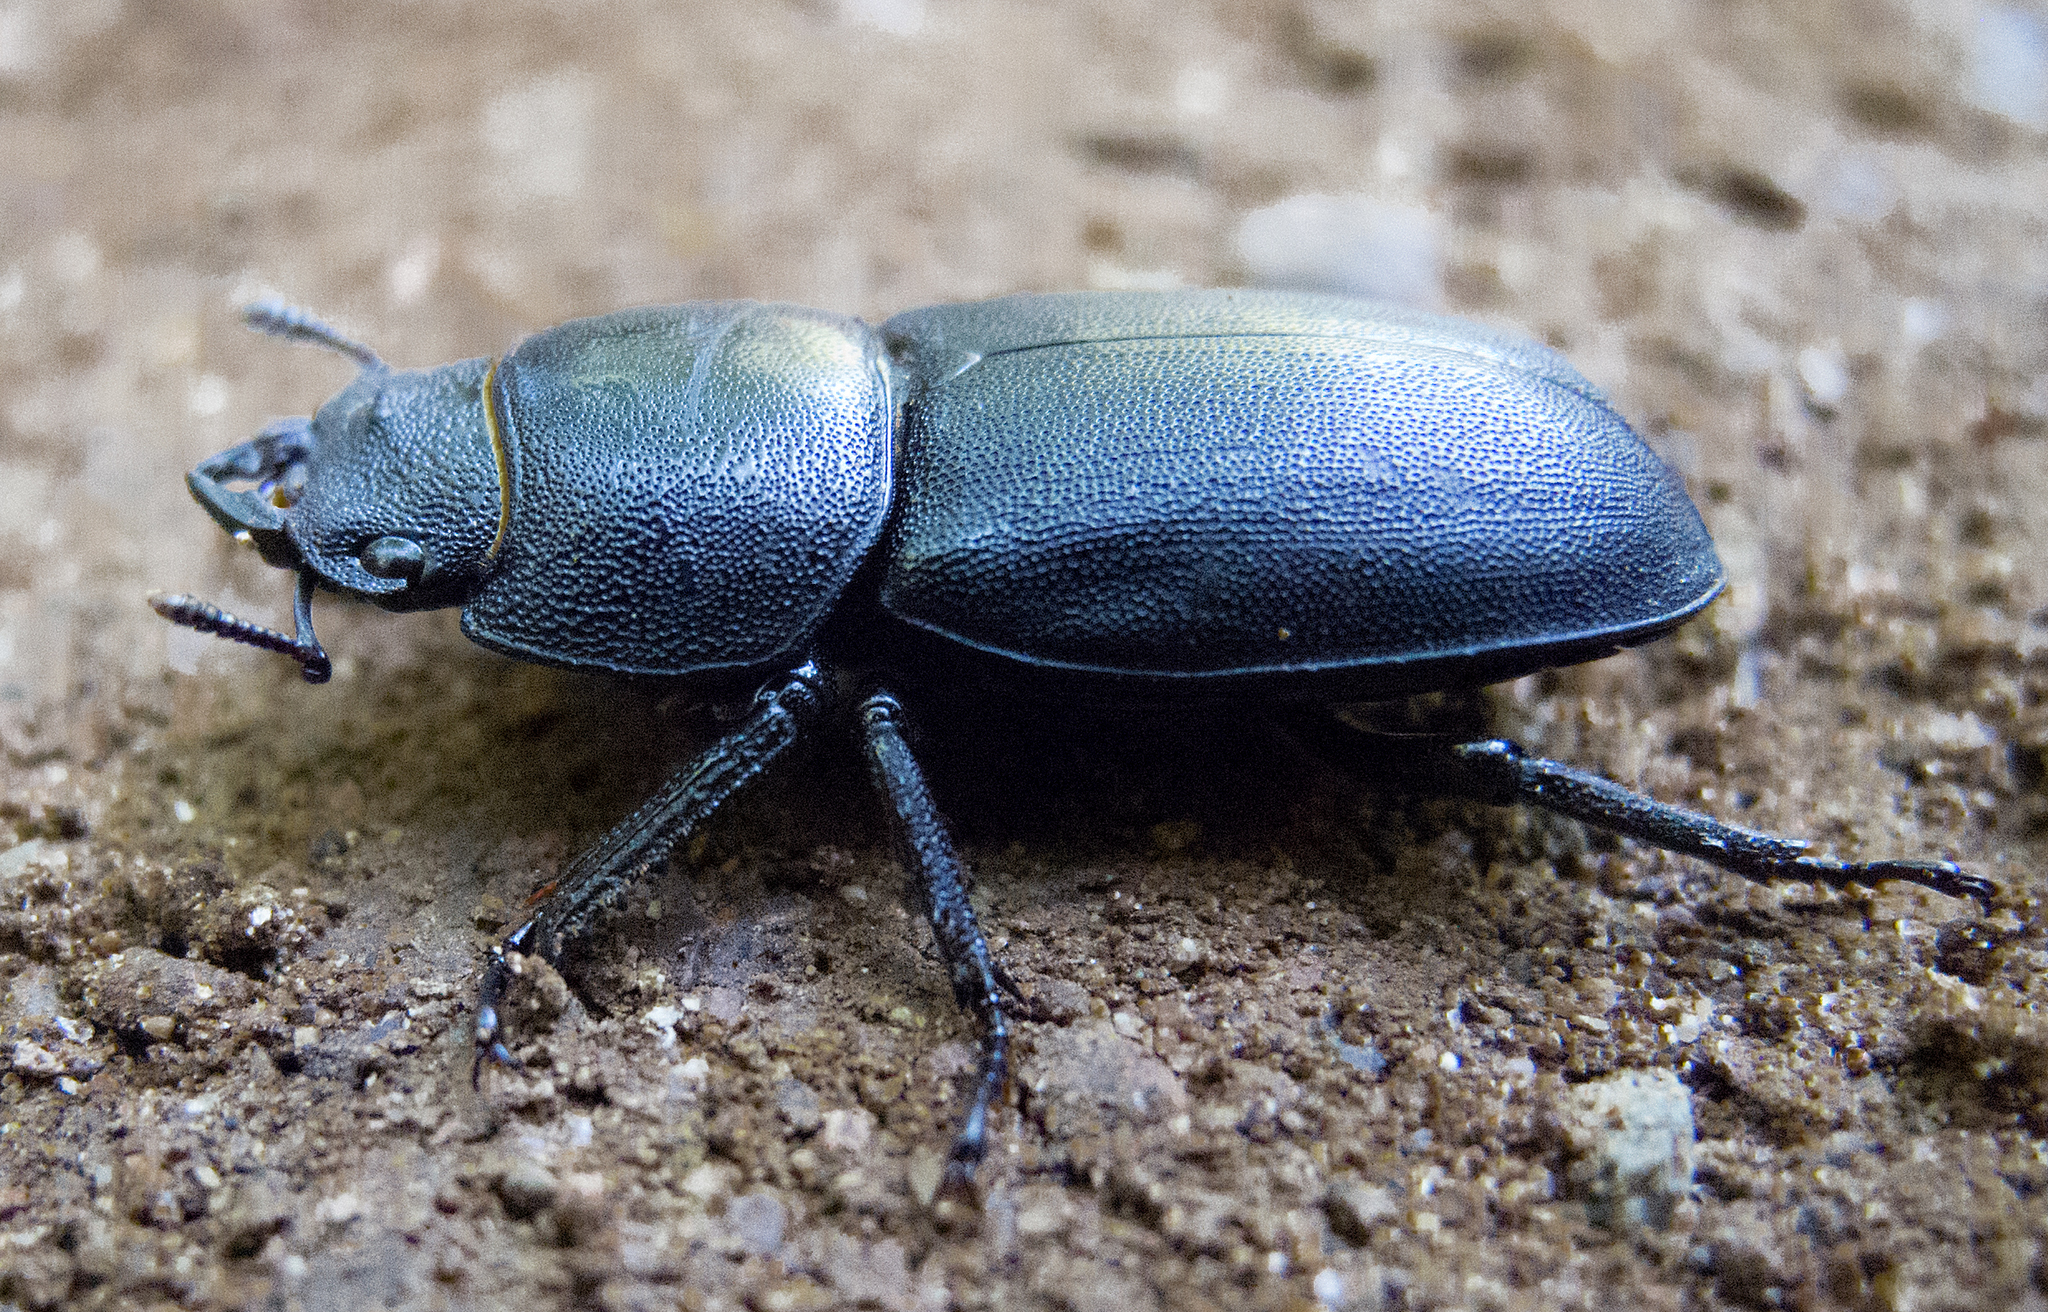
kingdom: Animalia
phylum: Arthropoda
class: Insecta
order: Coleoptera
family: Lucanidae
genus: Dorcus
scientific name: Dorcus parallelipipedus
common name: Lesser stag beetle
